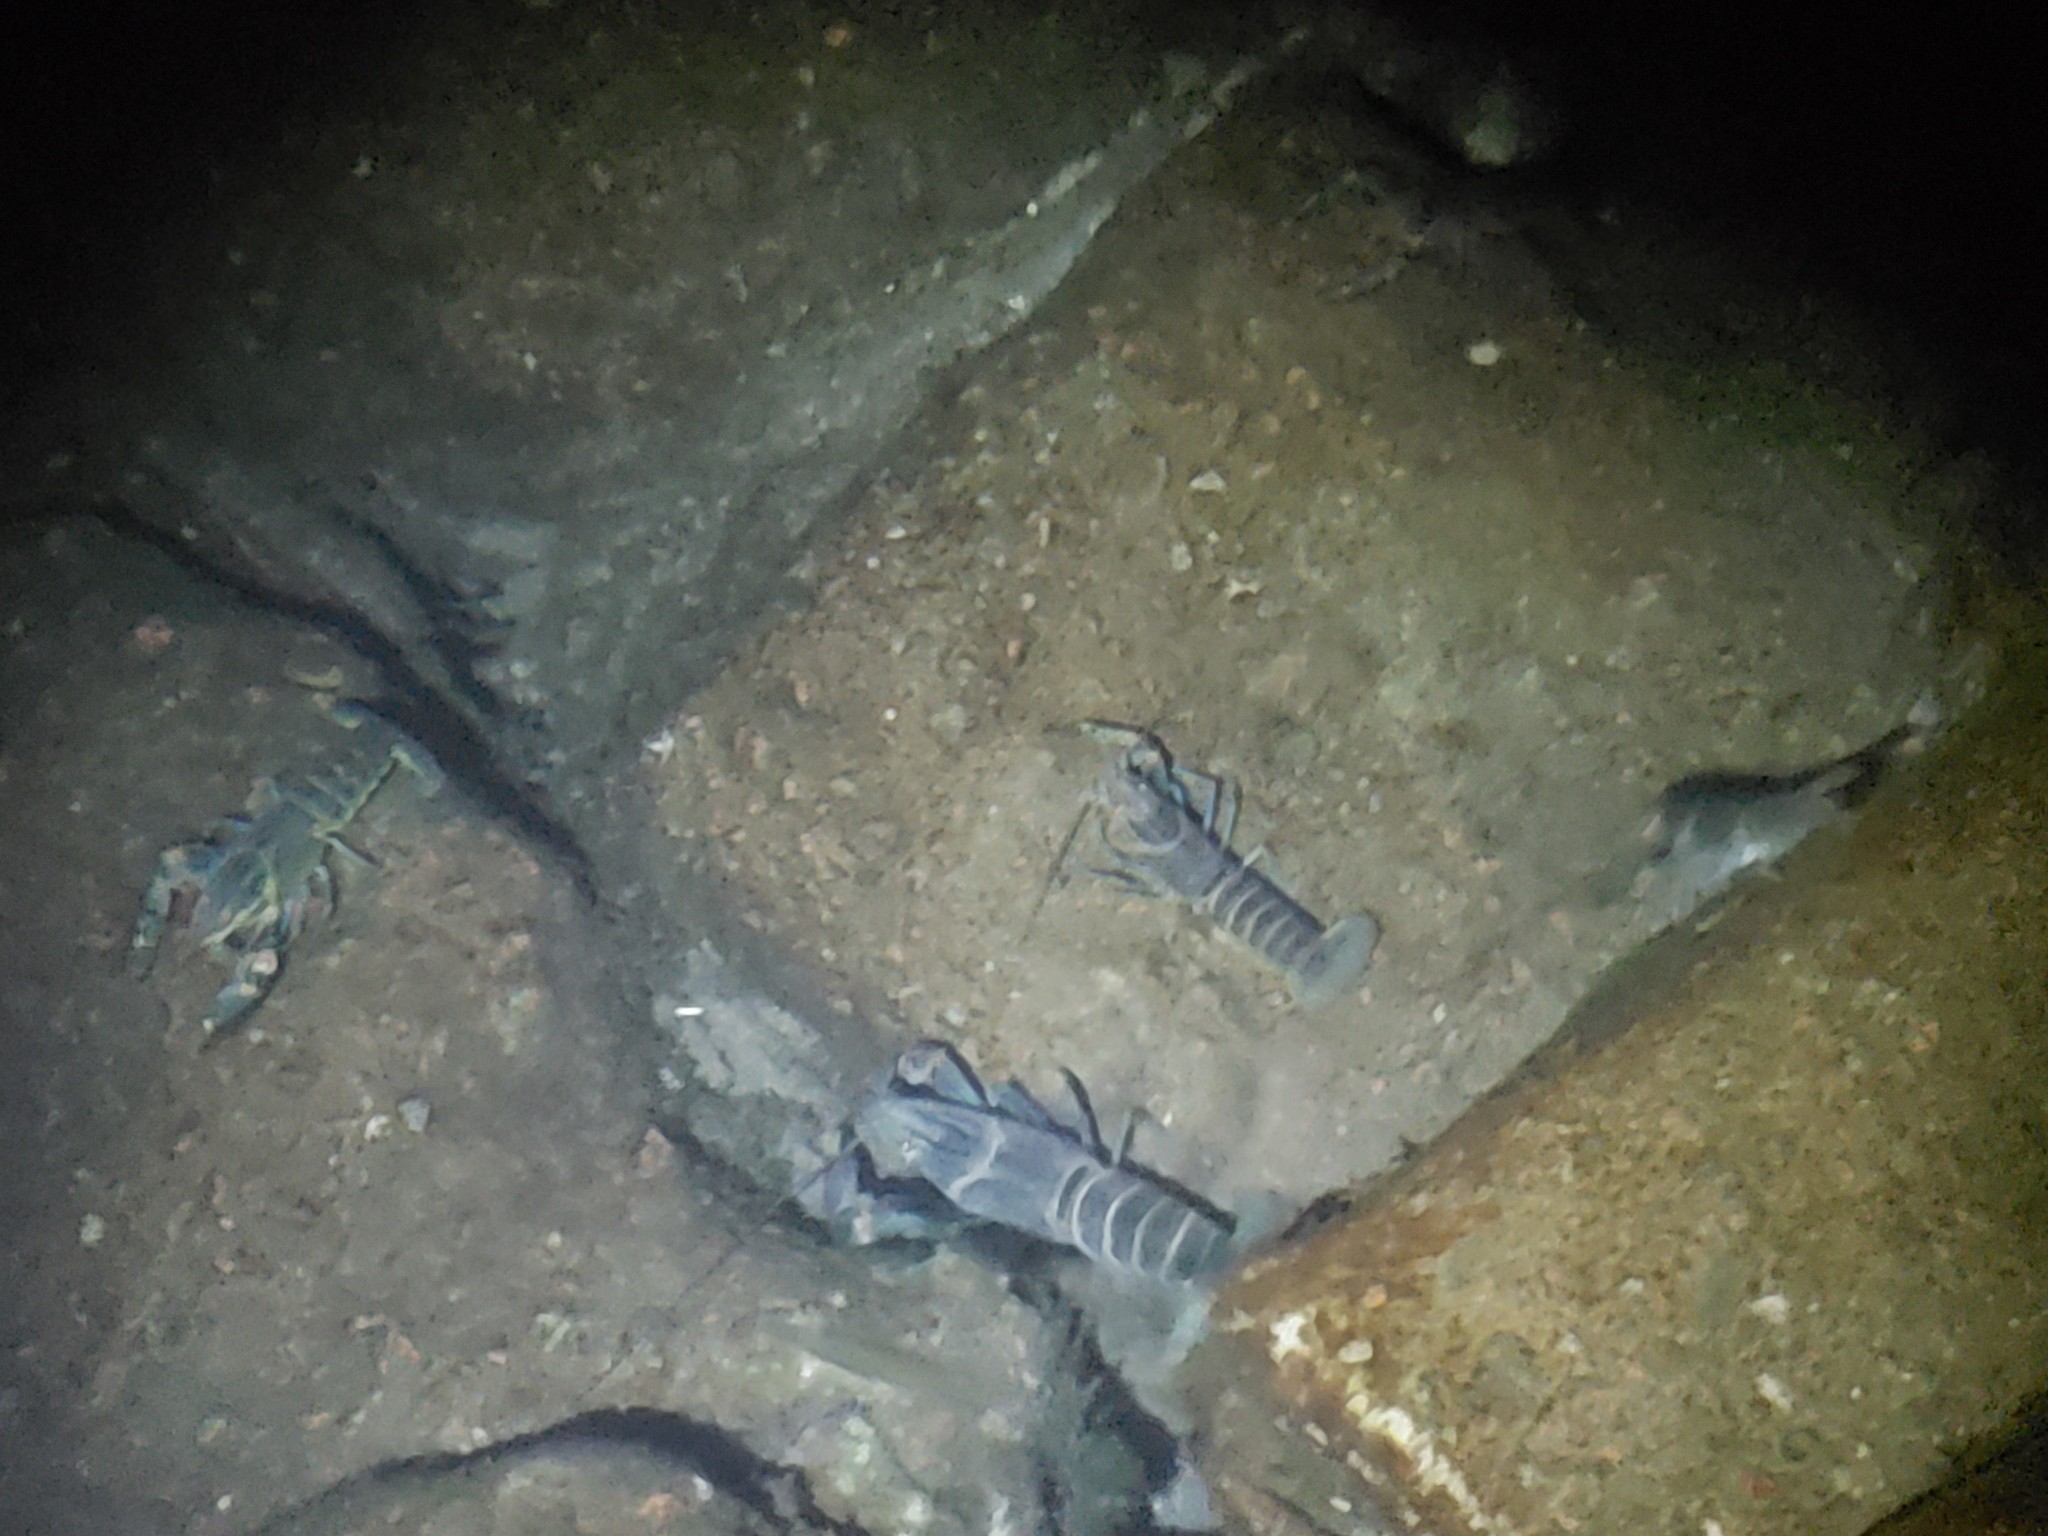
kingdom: Animalia
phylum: Arthropoda
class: Malacostraca
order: Decapoda
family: Parastacidae
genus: Cherax
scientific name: Cherax quadricarinatus
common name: Redclaw
